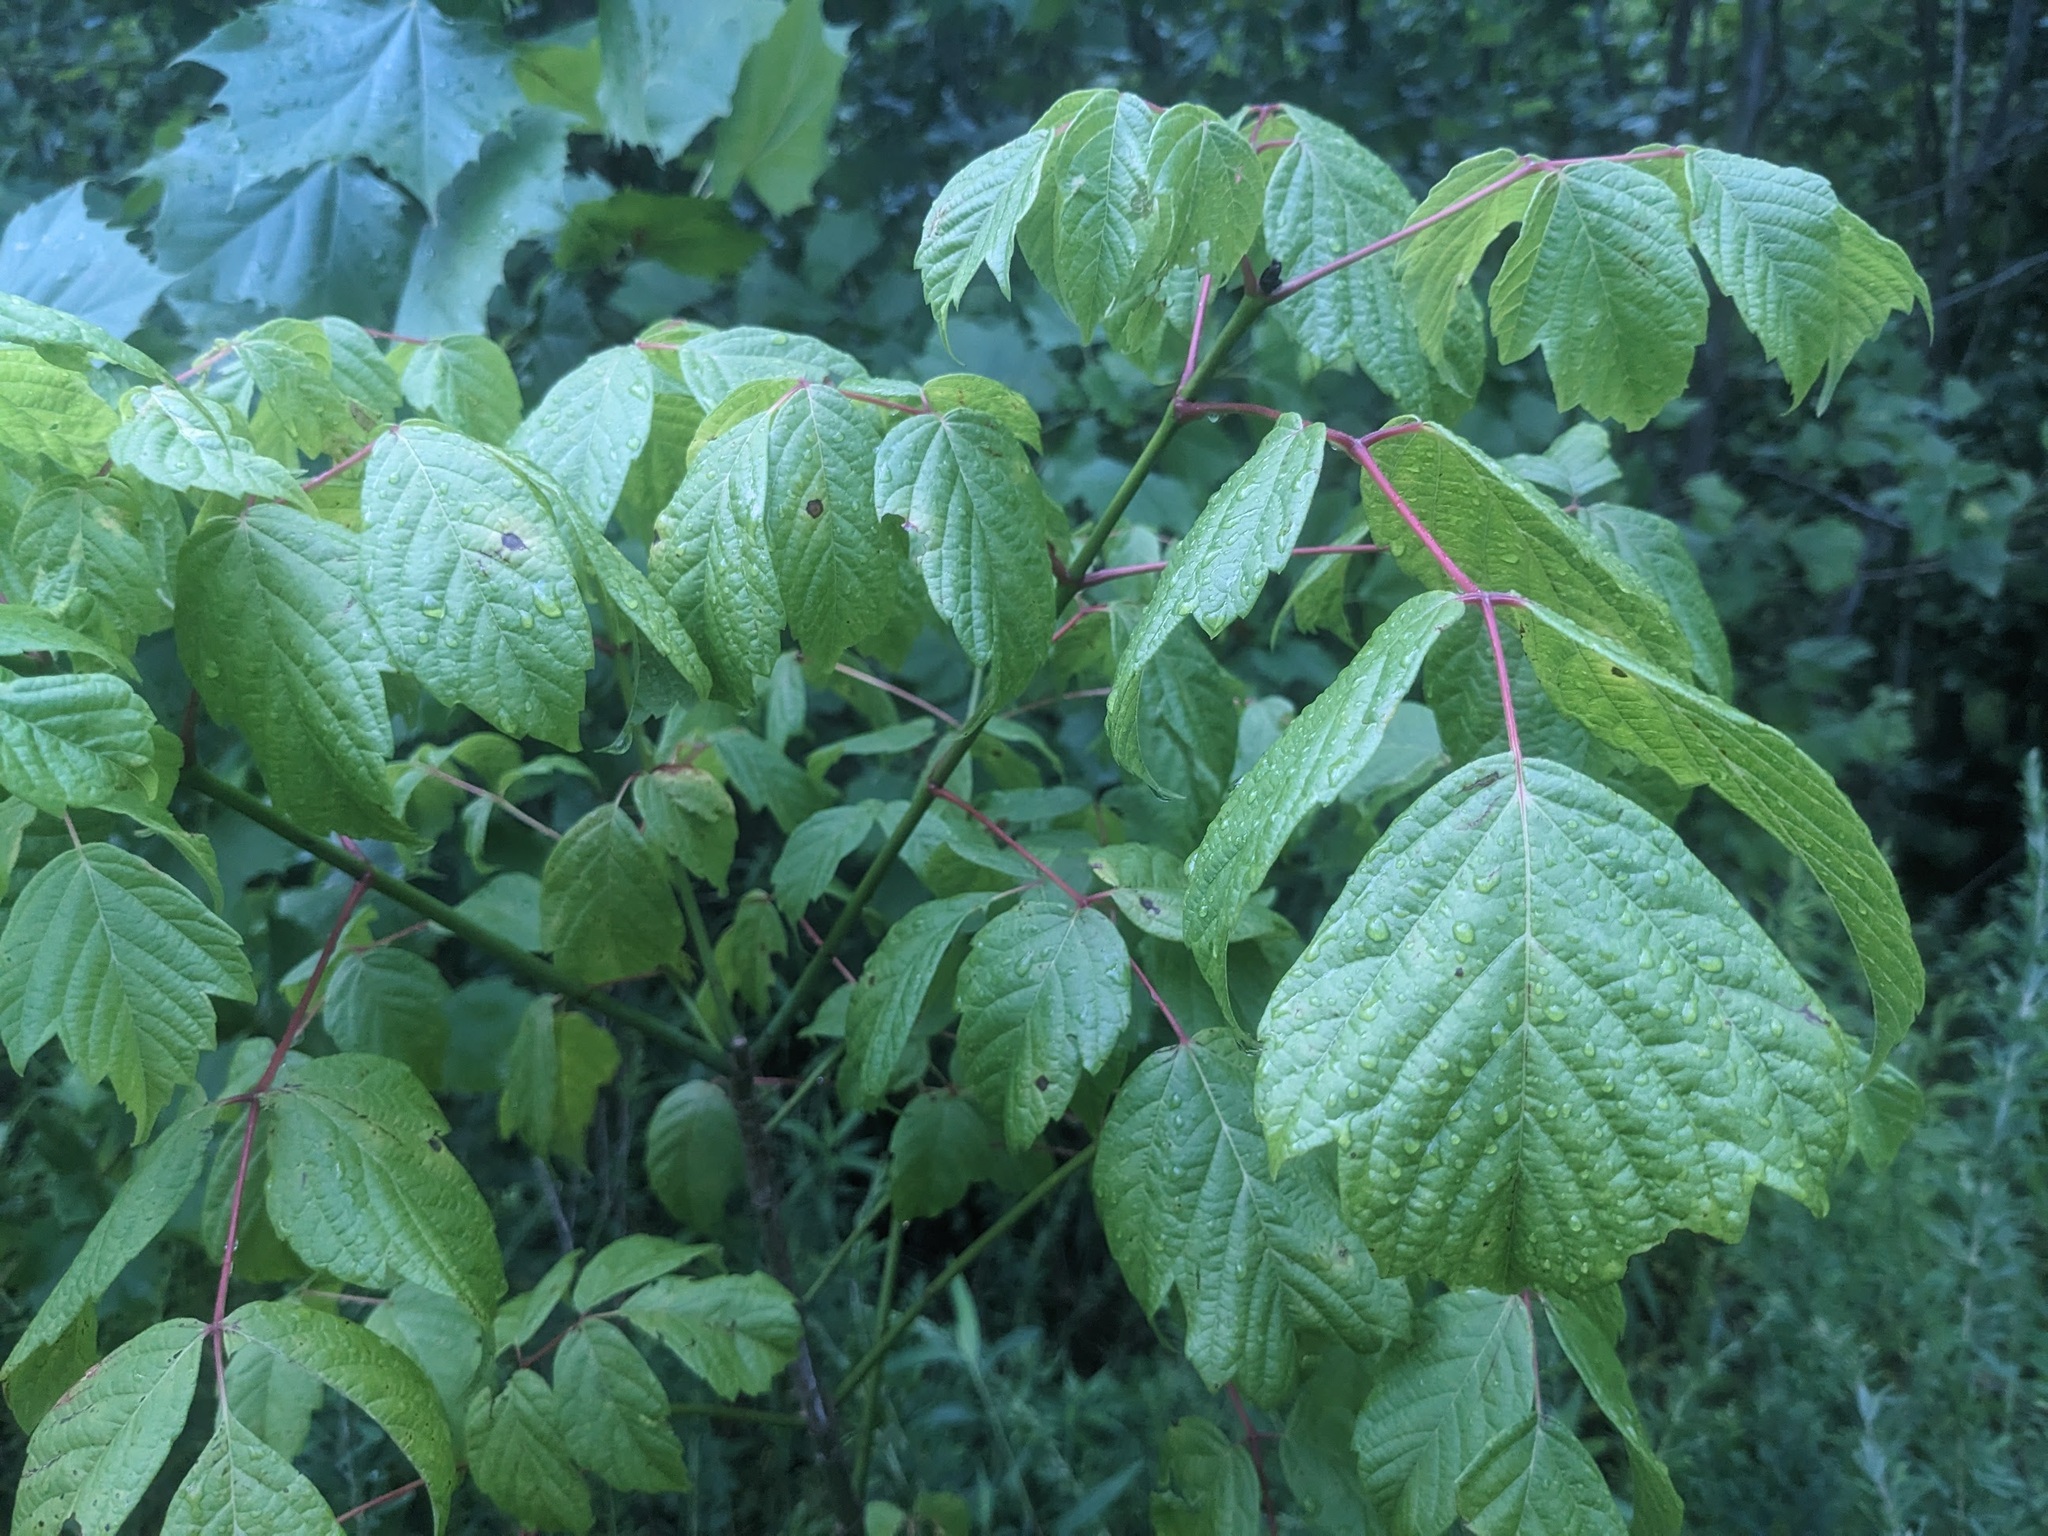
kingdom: Plantae
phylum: Tracheophyta
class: Magnoliopsida
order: Sapindales
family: Sapindaceae
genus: Acer
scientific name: Acer negundo
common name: Ashleaf maple
